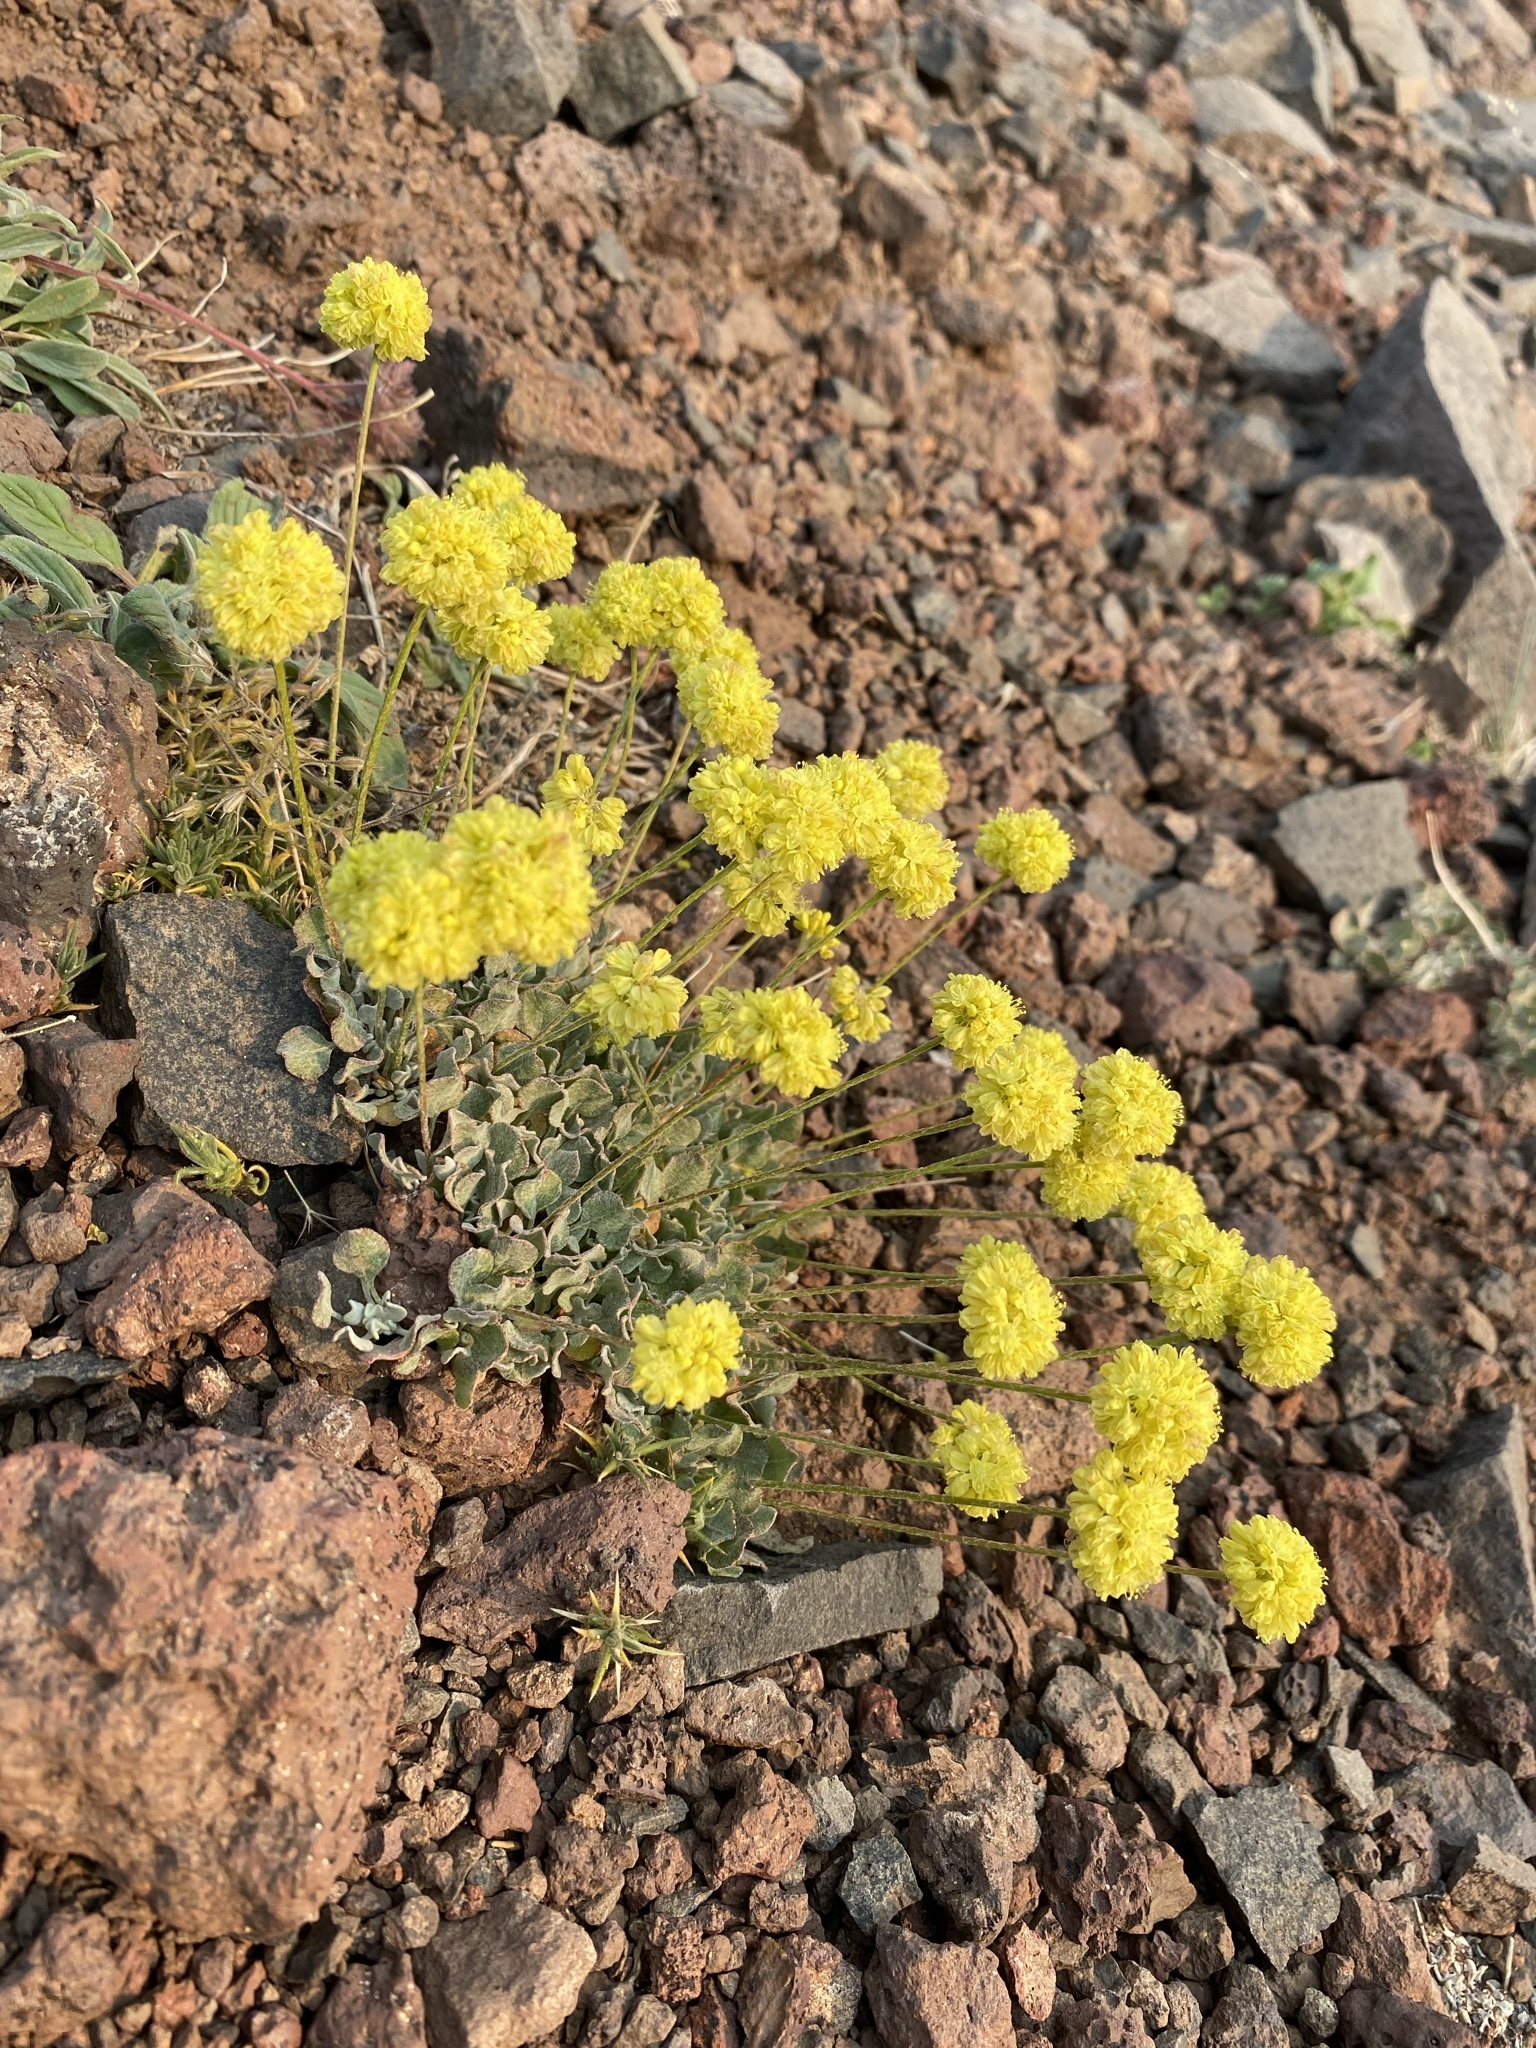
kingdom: Plantae
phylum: Tracheophyta
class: Magnoliopsida
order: Caryophyllales
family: Polygonaceae
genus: Eriogonum
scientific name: Eriogonum ovalifolium
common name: Cushion buckwheat
